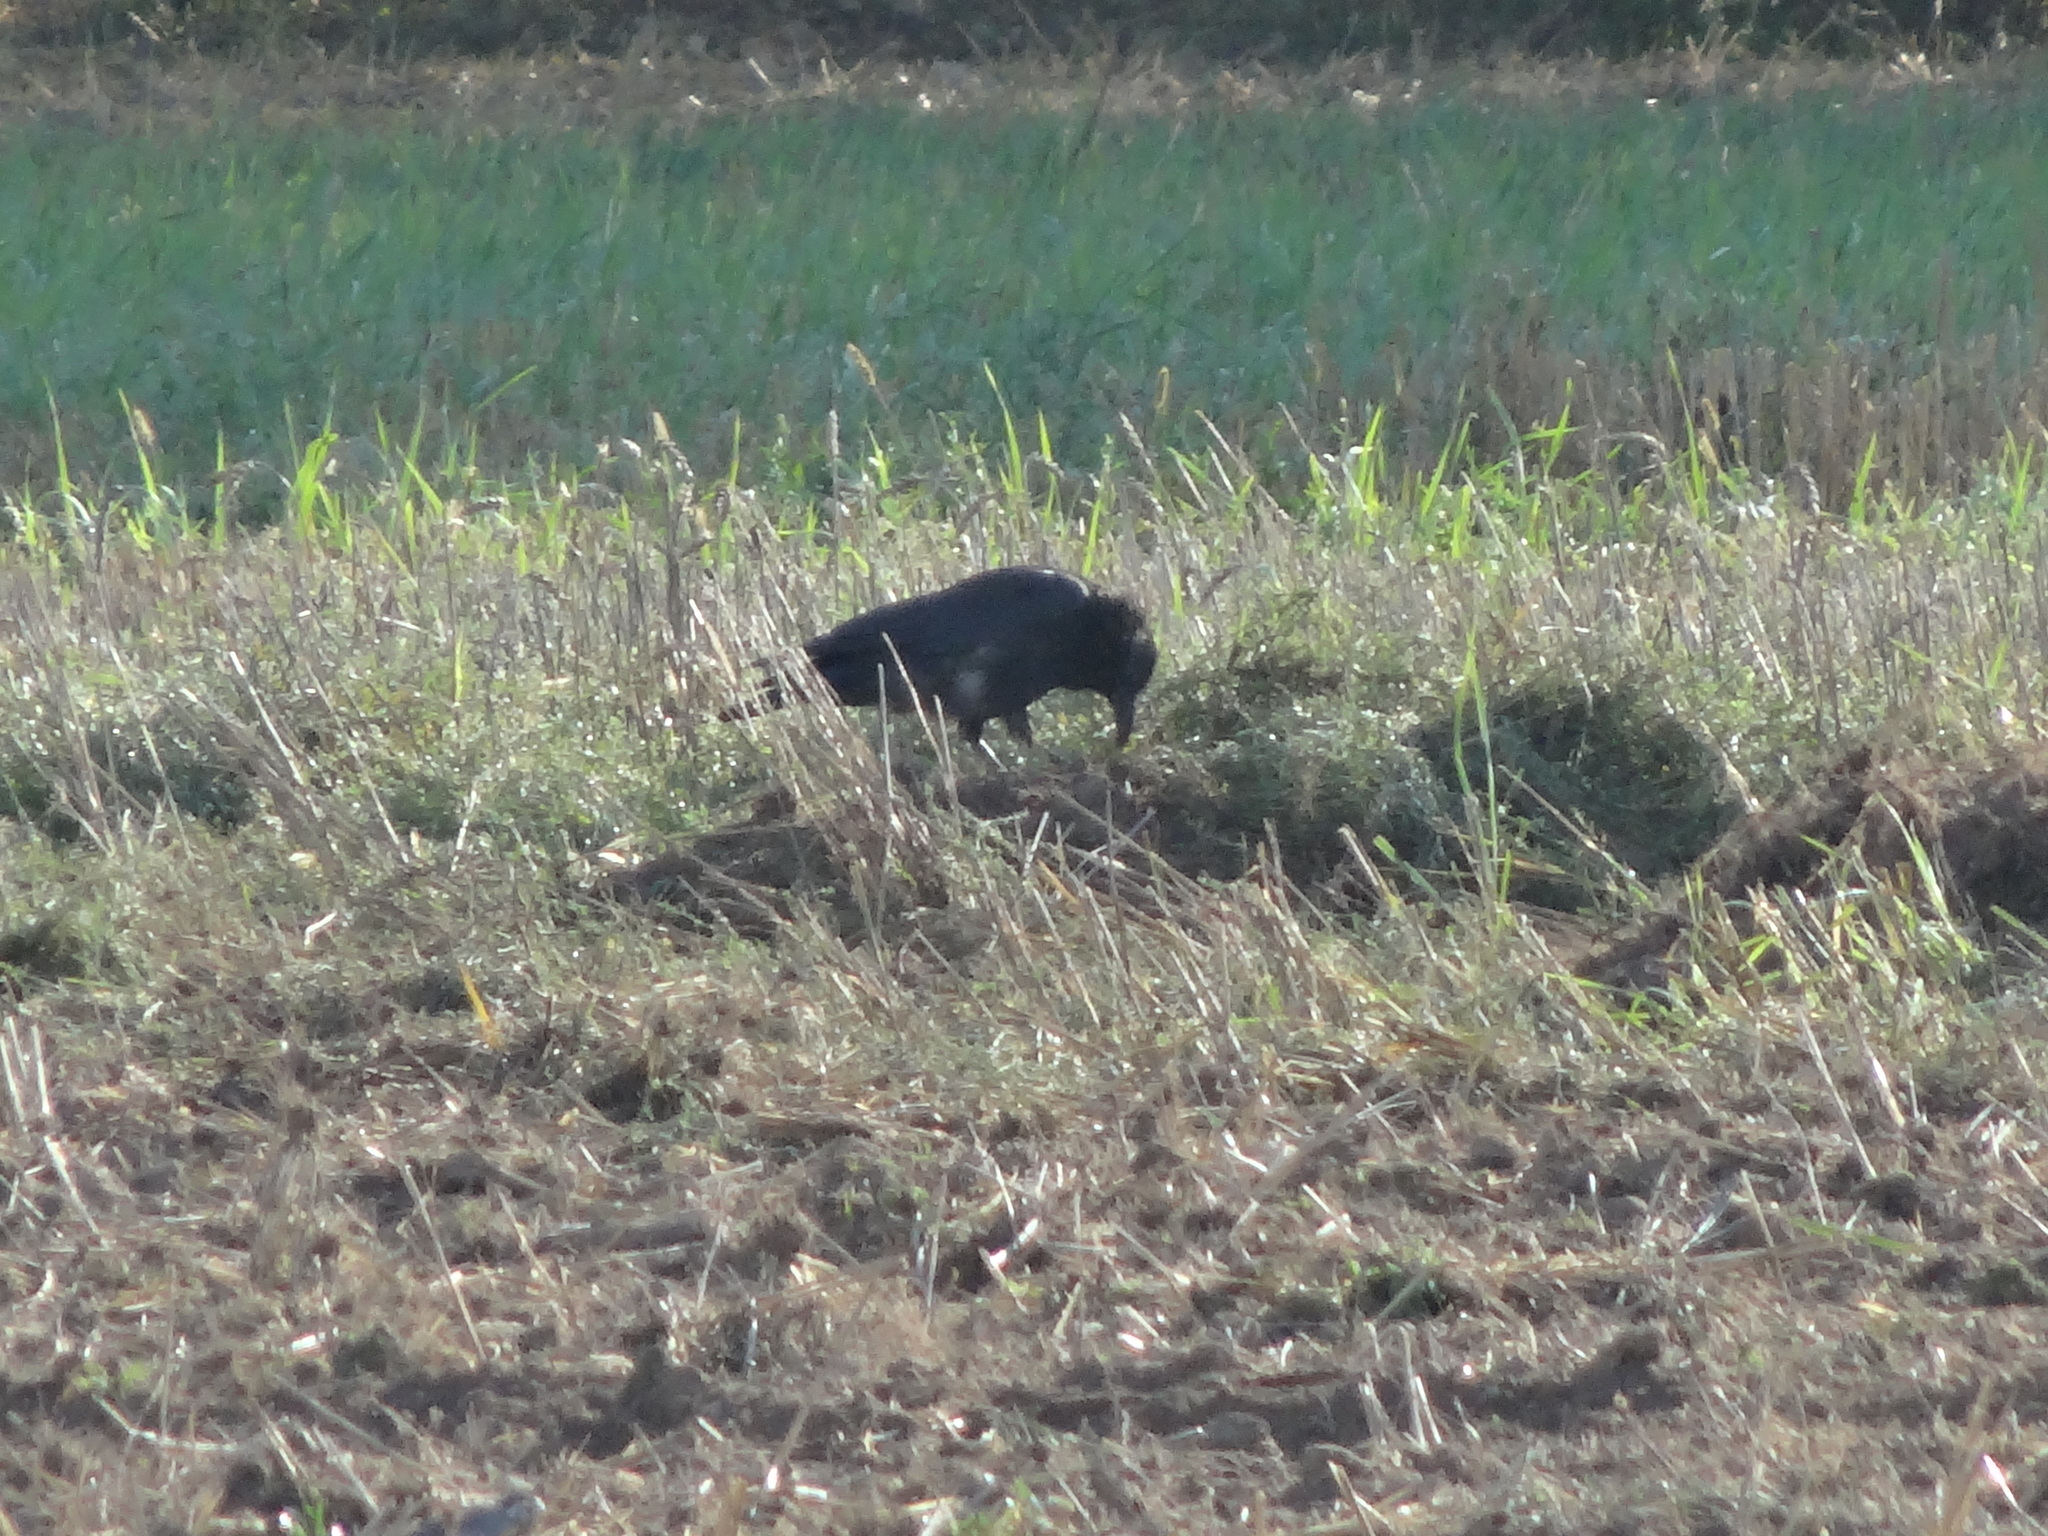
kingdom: Animalia
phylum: Chordata
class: Aves
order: Passeriformes
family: Corvidae
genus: Corvus
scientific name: Corvus corone
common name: Carrion crow
